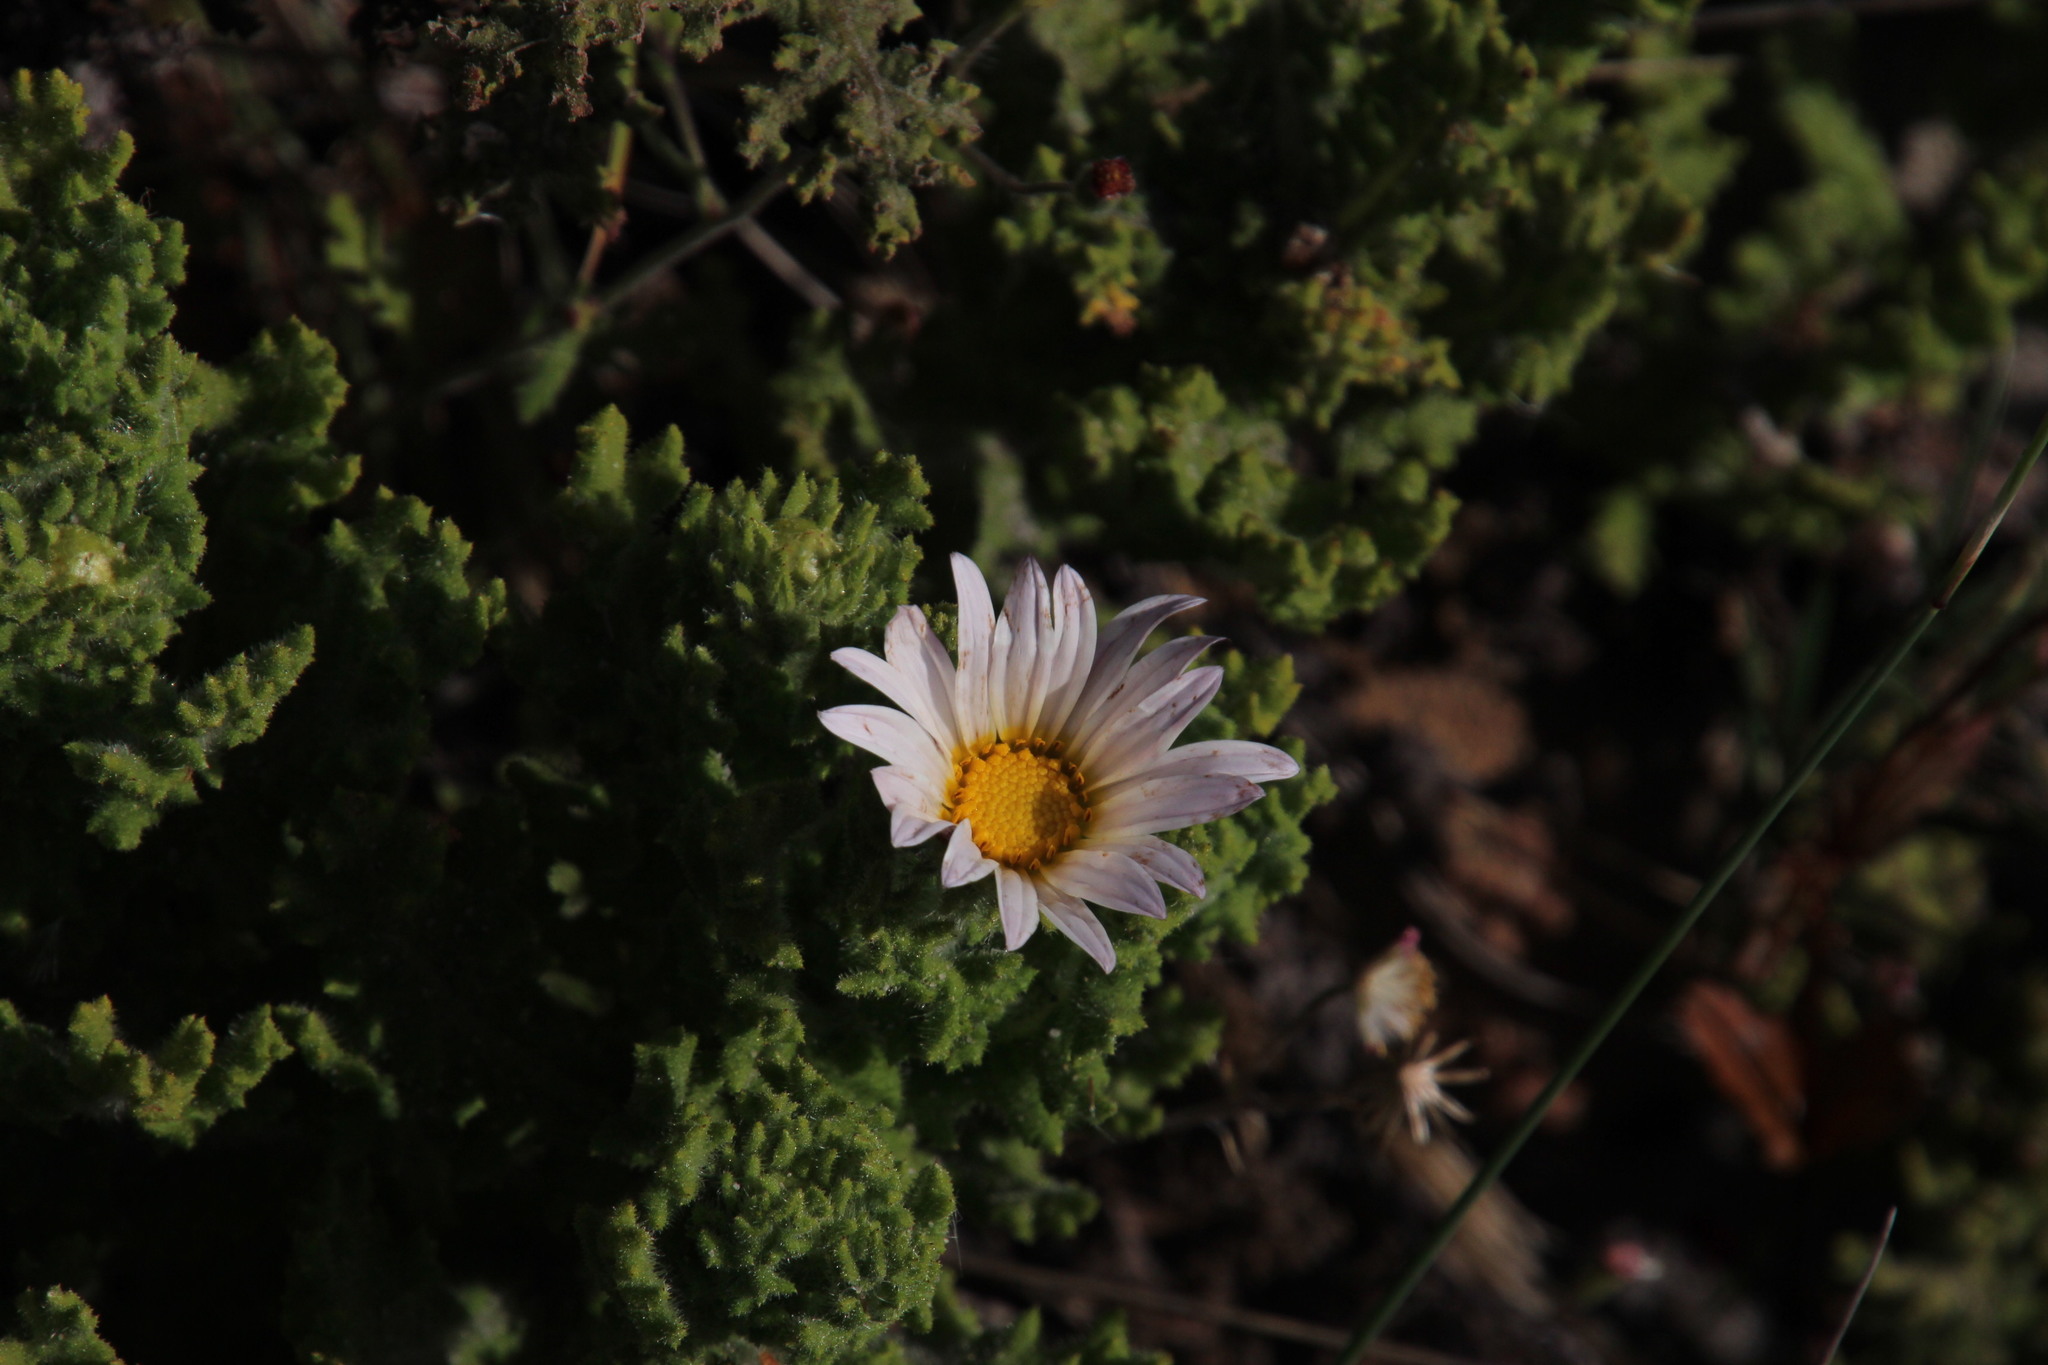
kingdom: Plantae
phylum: Tracheophyta
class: Magnoliopsida
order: Asterales
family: Asteraceae
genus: Arctotis
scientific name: Arctotis aspera
